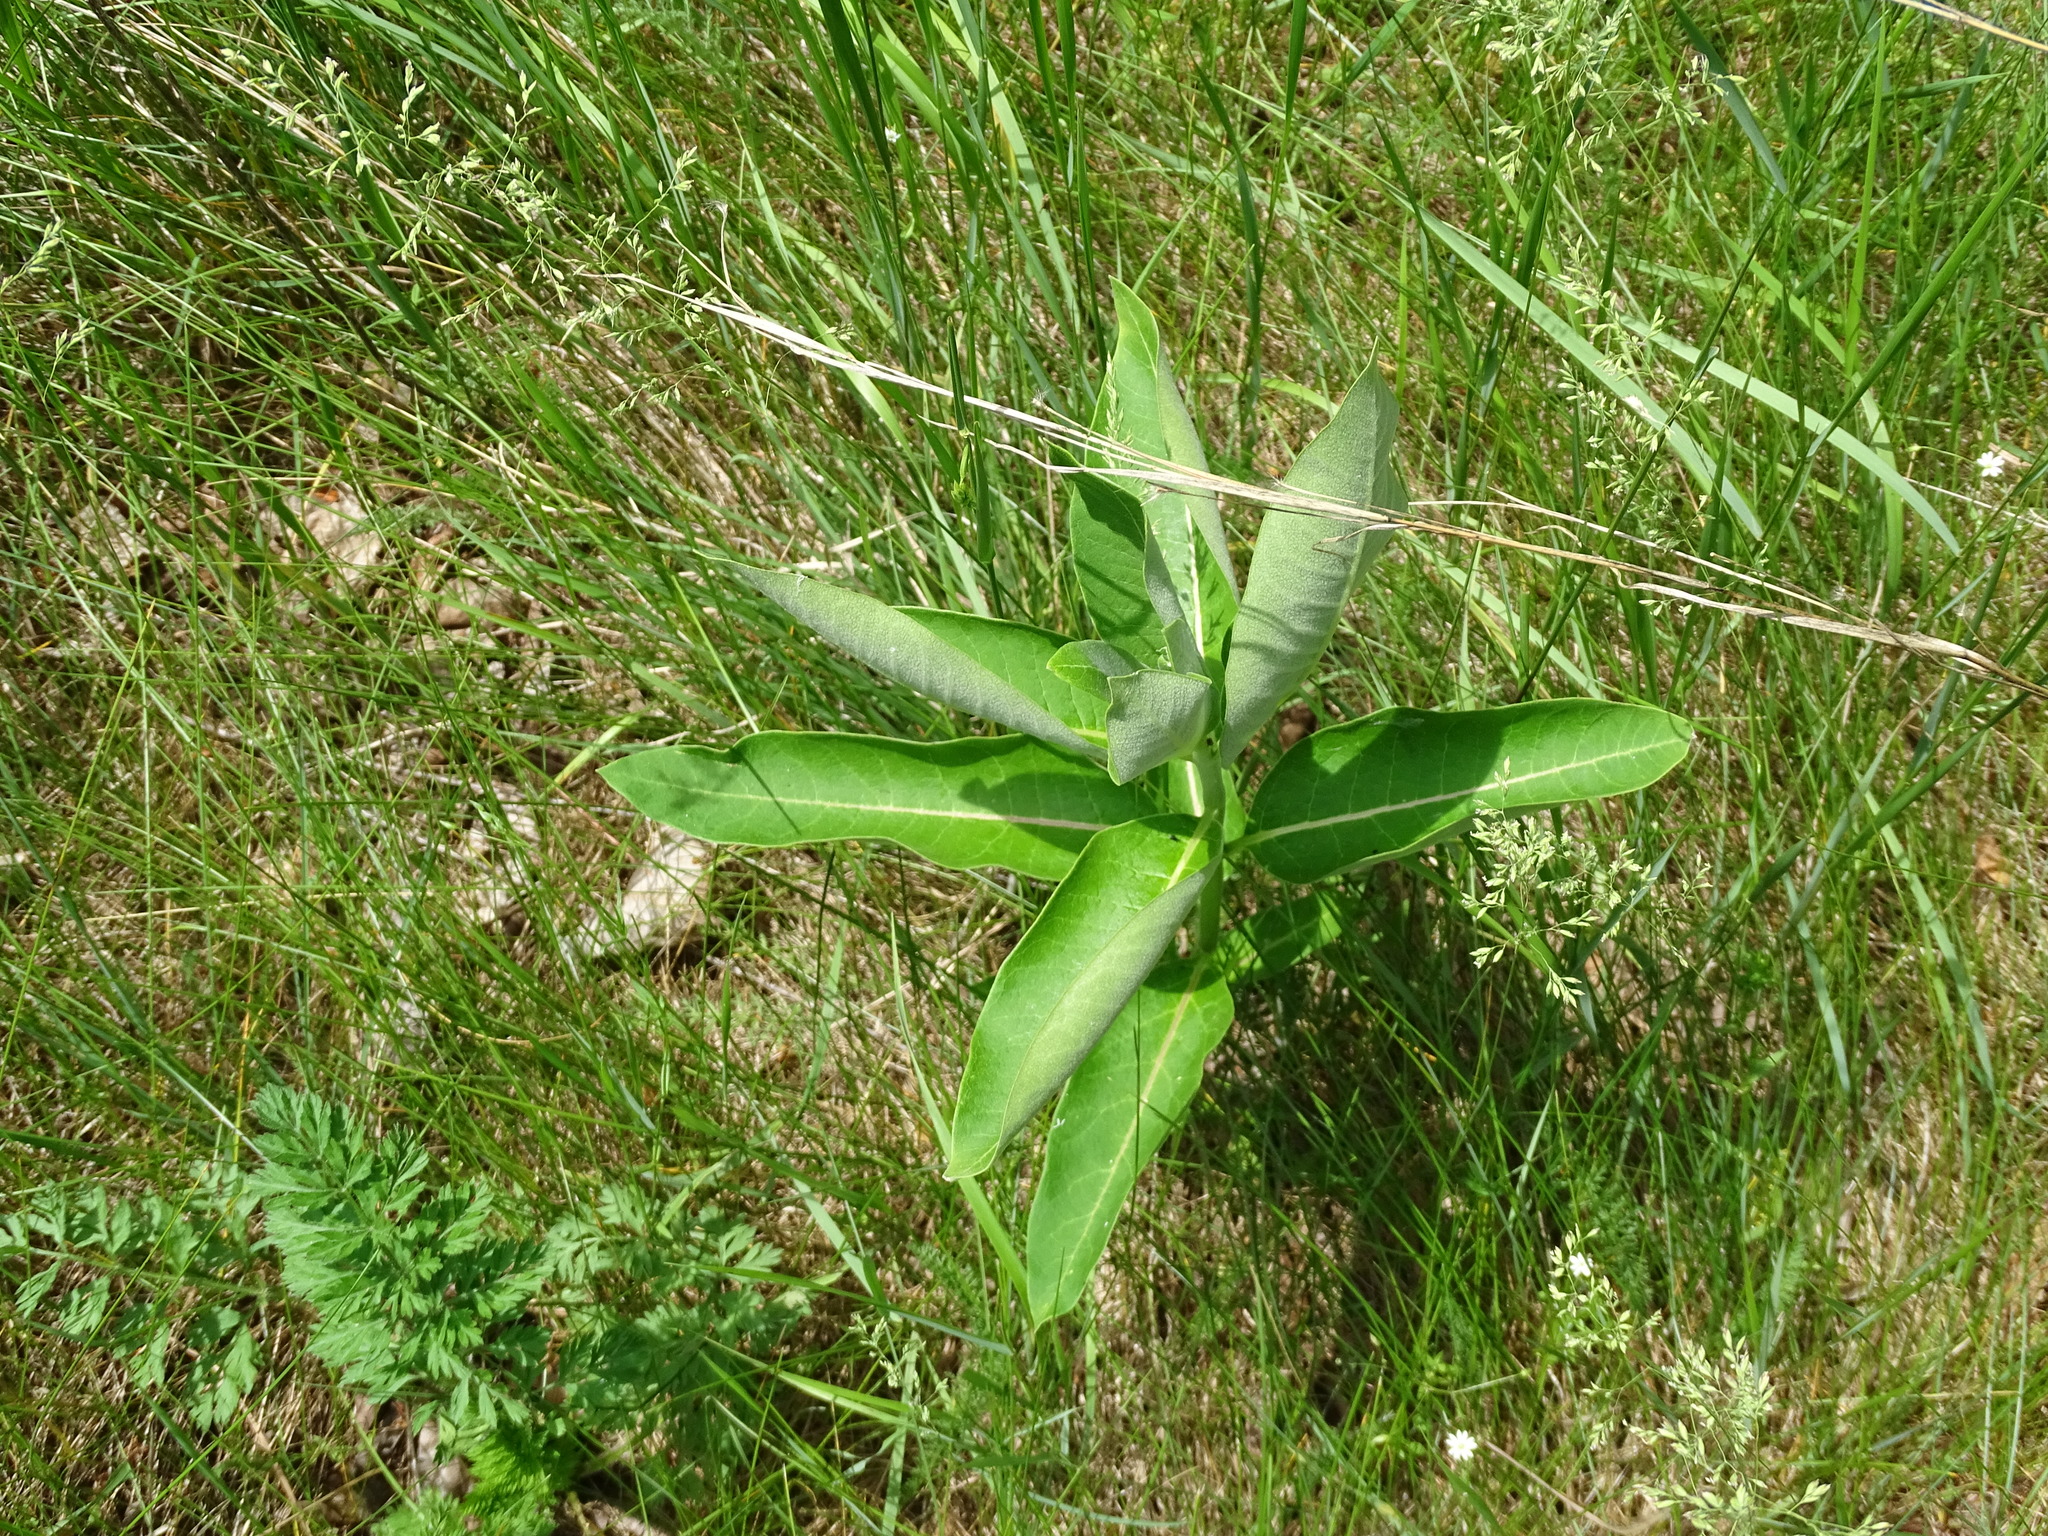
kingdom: Plantae
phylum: Tracheophyta
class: Magnoliopsida
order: Gentianales
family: Apocynaceae
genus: Asclepias
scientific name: Asclepias syriaca
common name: Common milkweed
